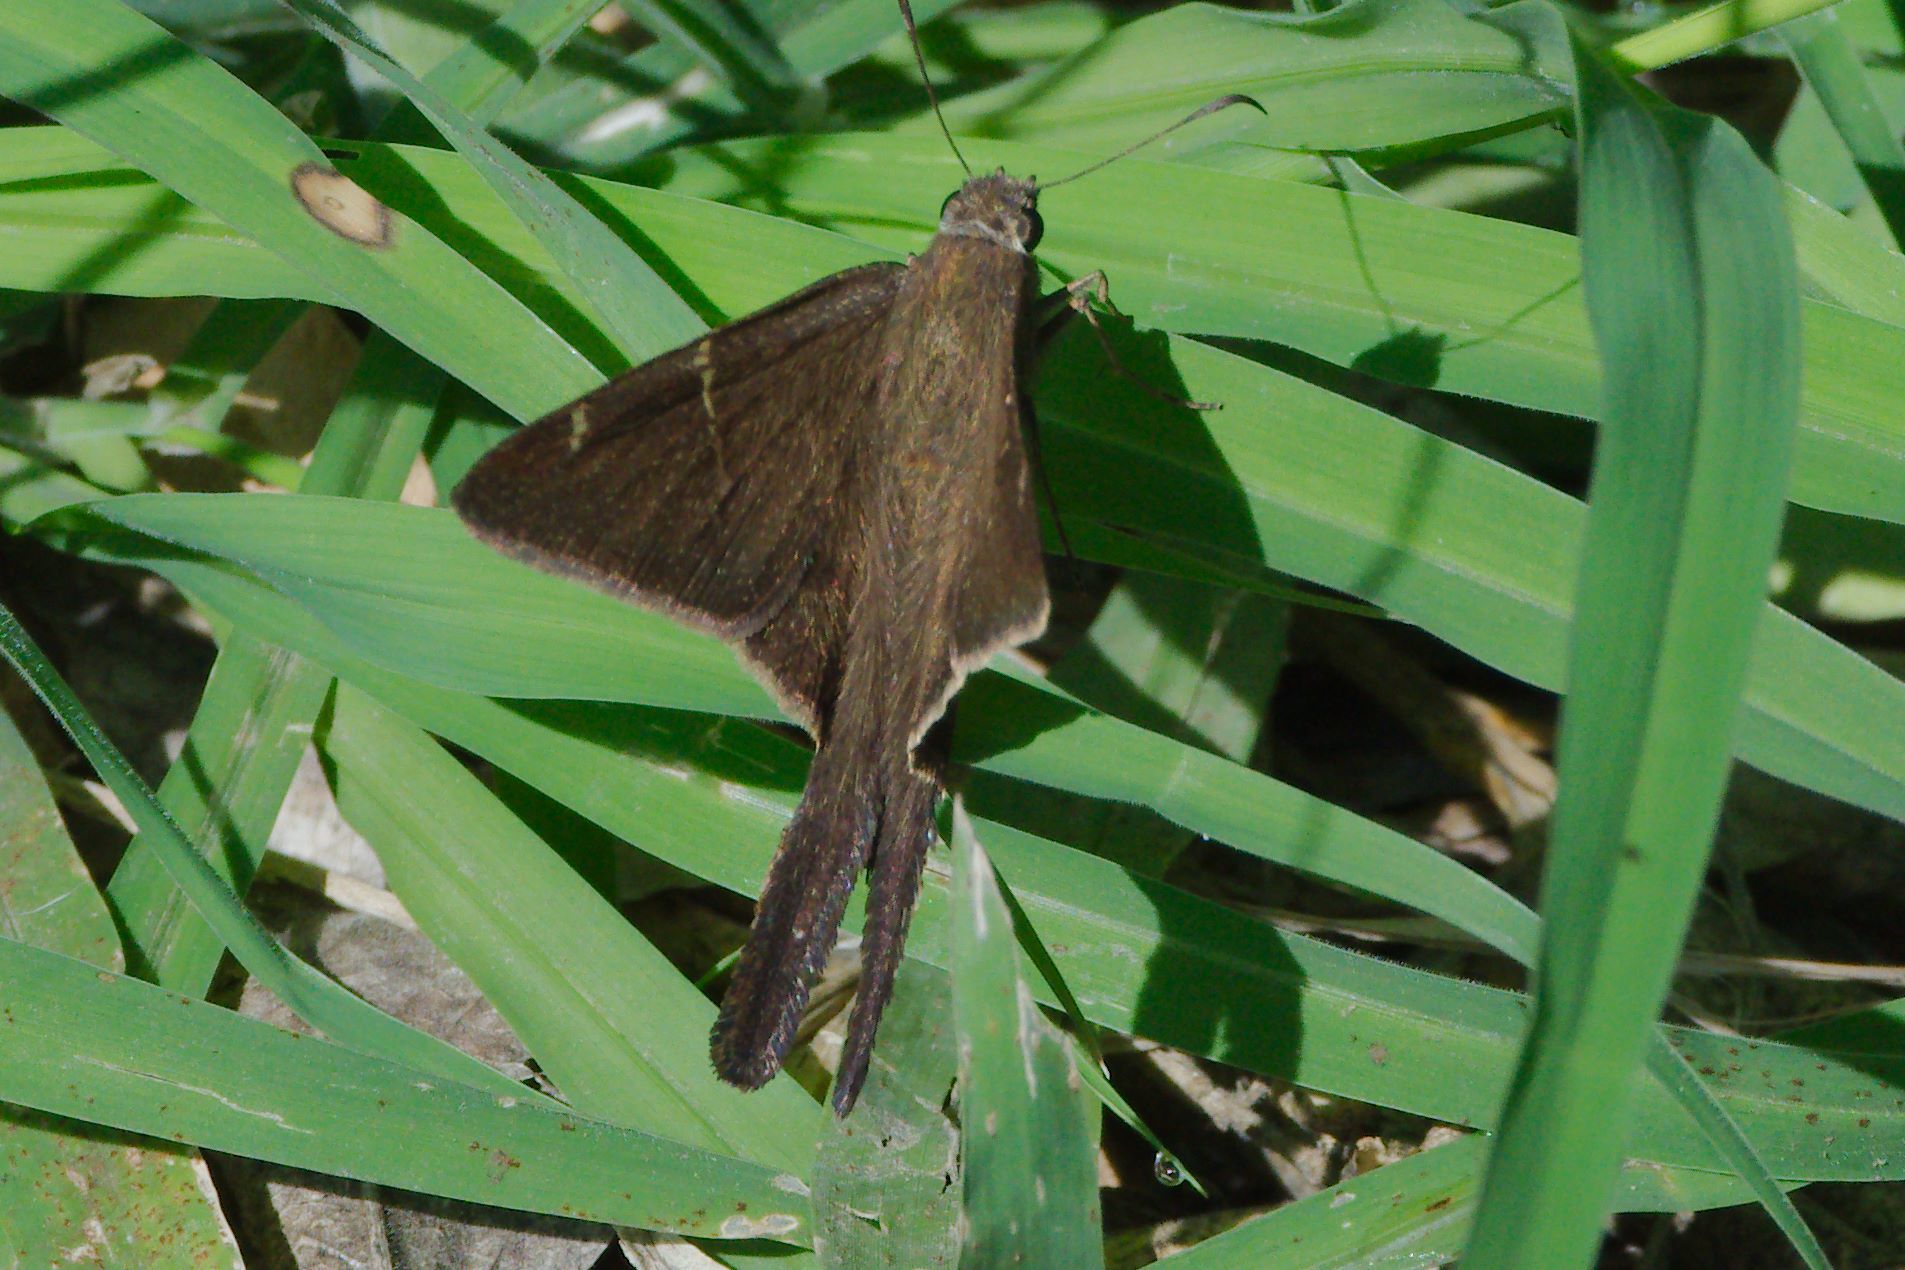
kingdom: Animalia
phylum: Arthropoda
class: Insecta
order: Lepidoptera
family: Hesperiidae
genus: Urbanus
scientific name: Urbanus procne
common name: Brown longtail
